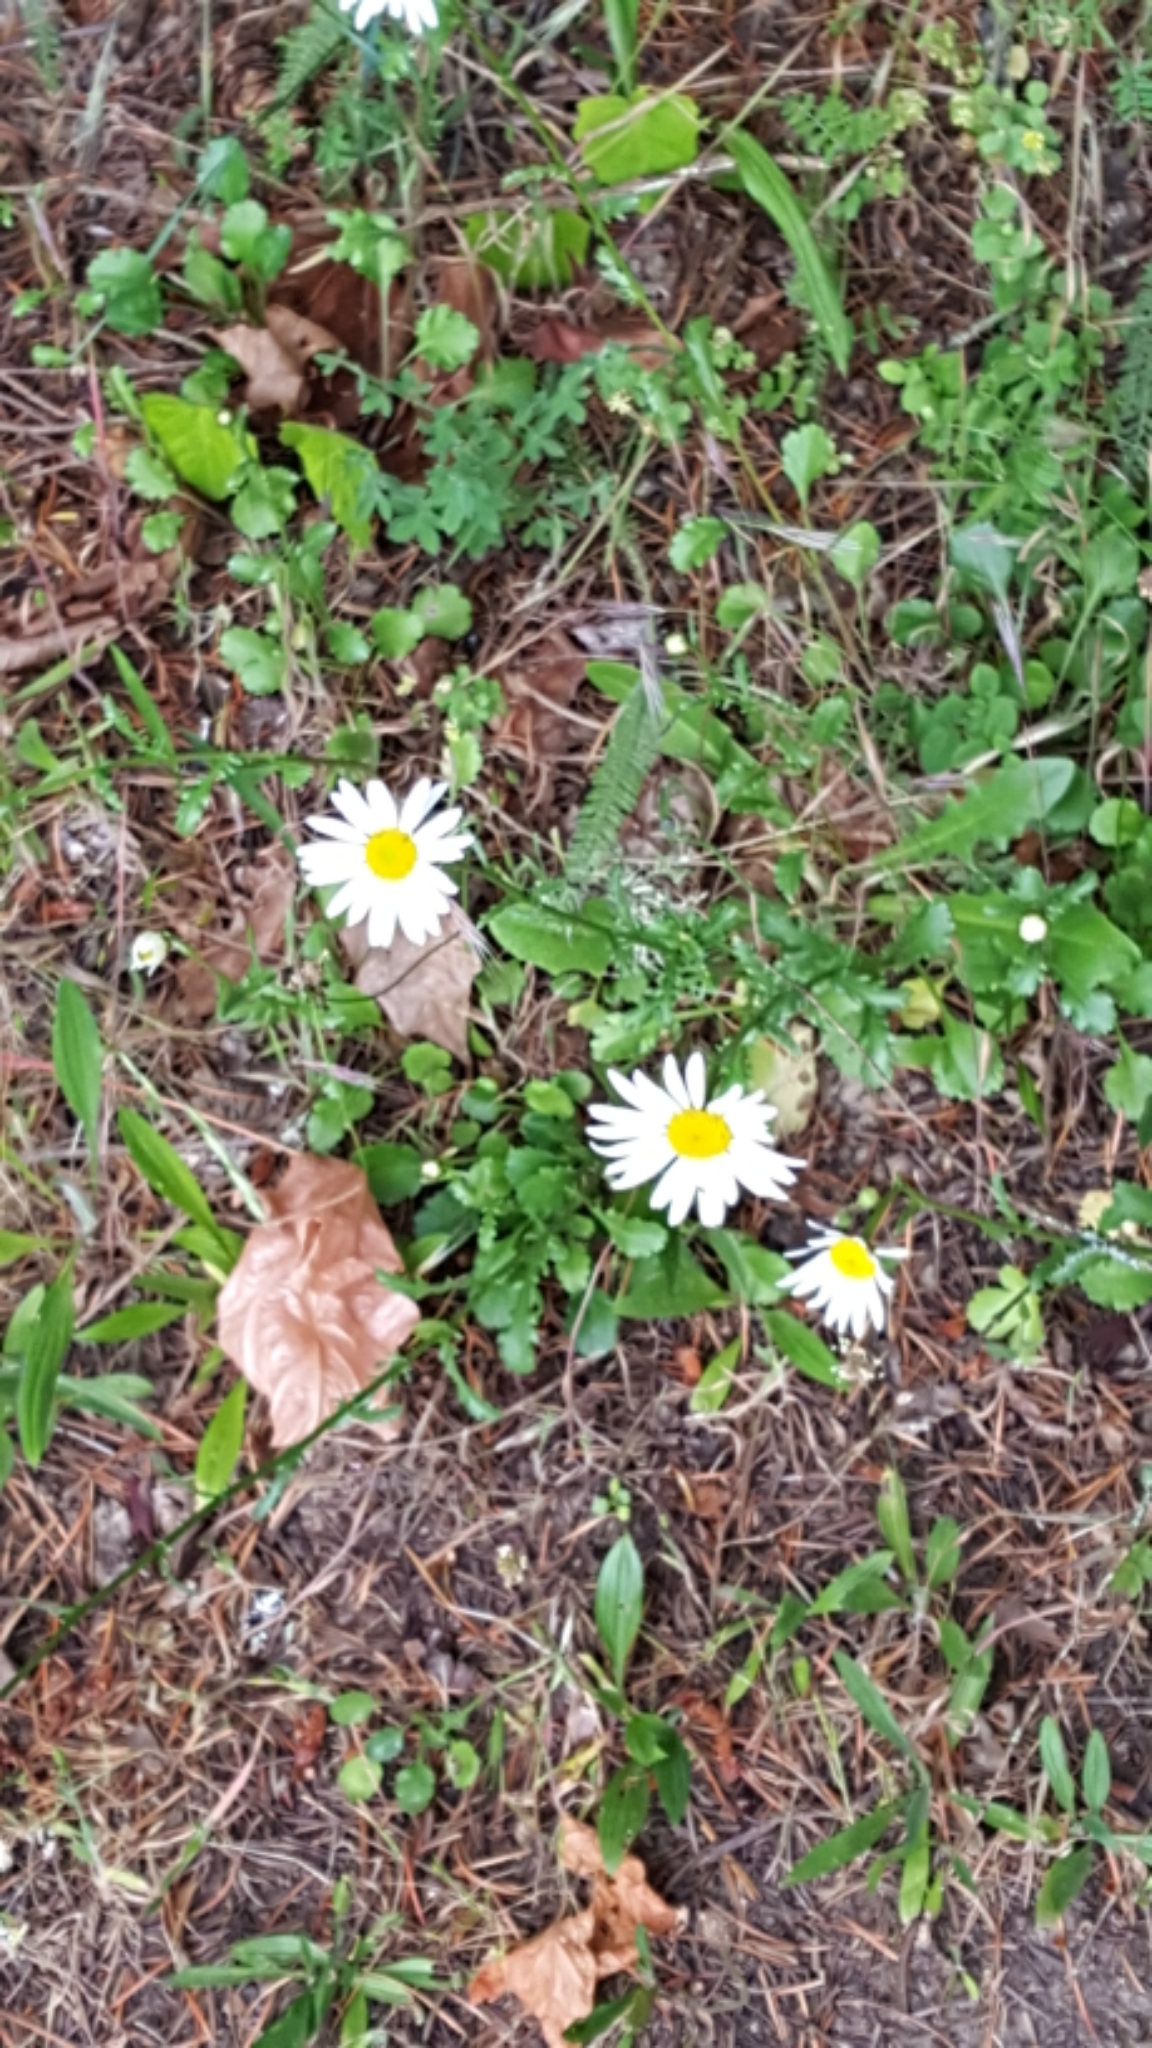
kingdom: Plantae
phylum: Tracheophyta
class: Magnoliopsida
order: Asterales
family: Asteraceae
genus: Leucanthemum
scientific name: Leucanthemum vulgare
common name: Oxeye daisy
